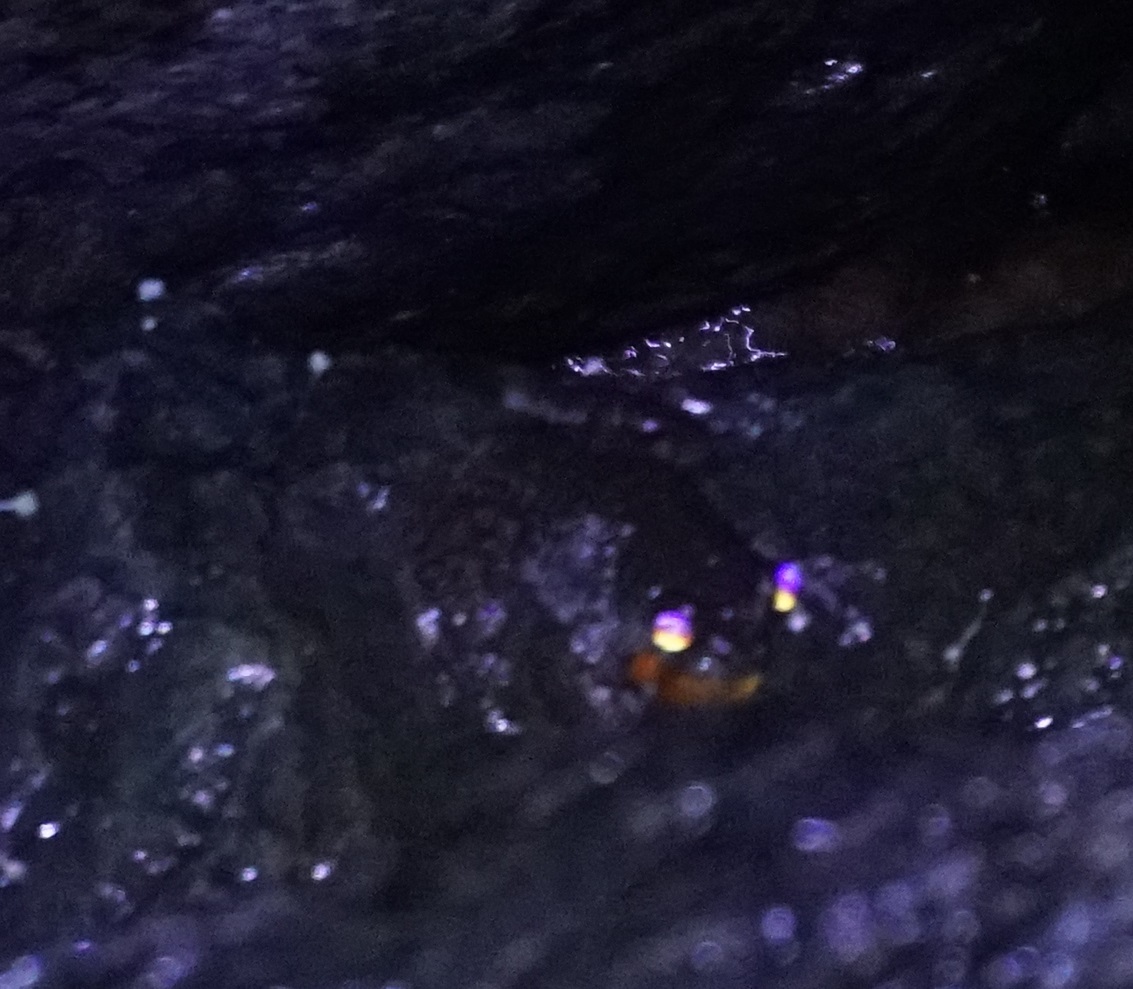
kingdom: Animalia
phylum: Chordata
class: Amphibia
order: Anura
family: Pelodryadidae
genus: Ranoidea
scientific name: Ranoidea nannotis
